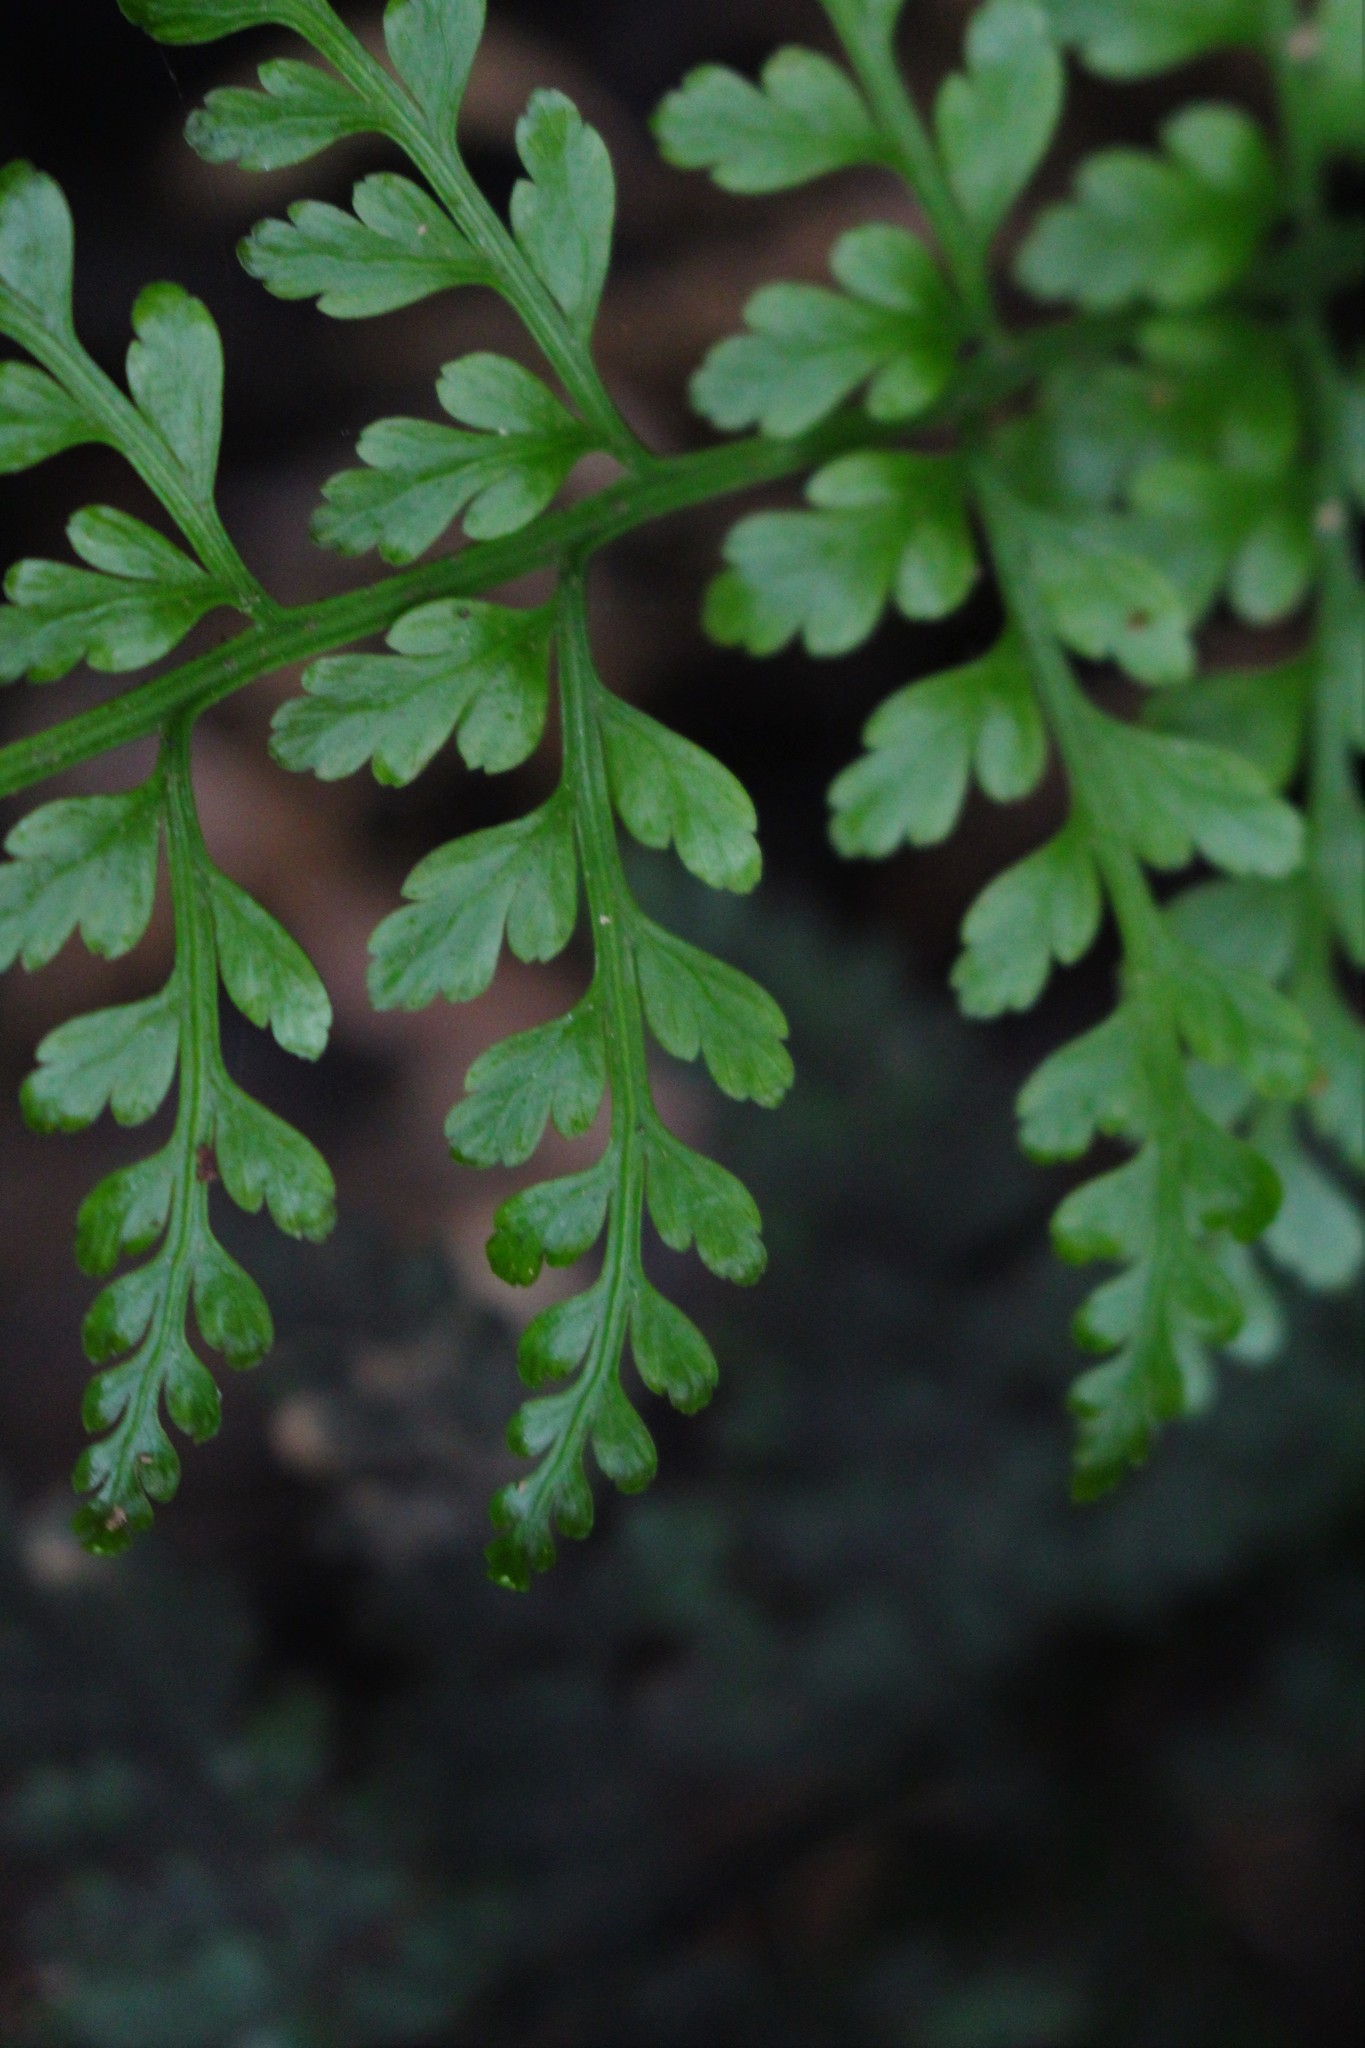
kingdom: Plantae
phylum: Tracheophyta
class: Polypodiopsida
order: Polypodiales
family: Aspleniaceae
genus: Asplenium
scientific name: Asplenium
